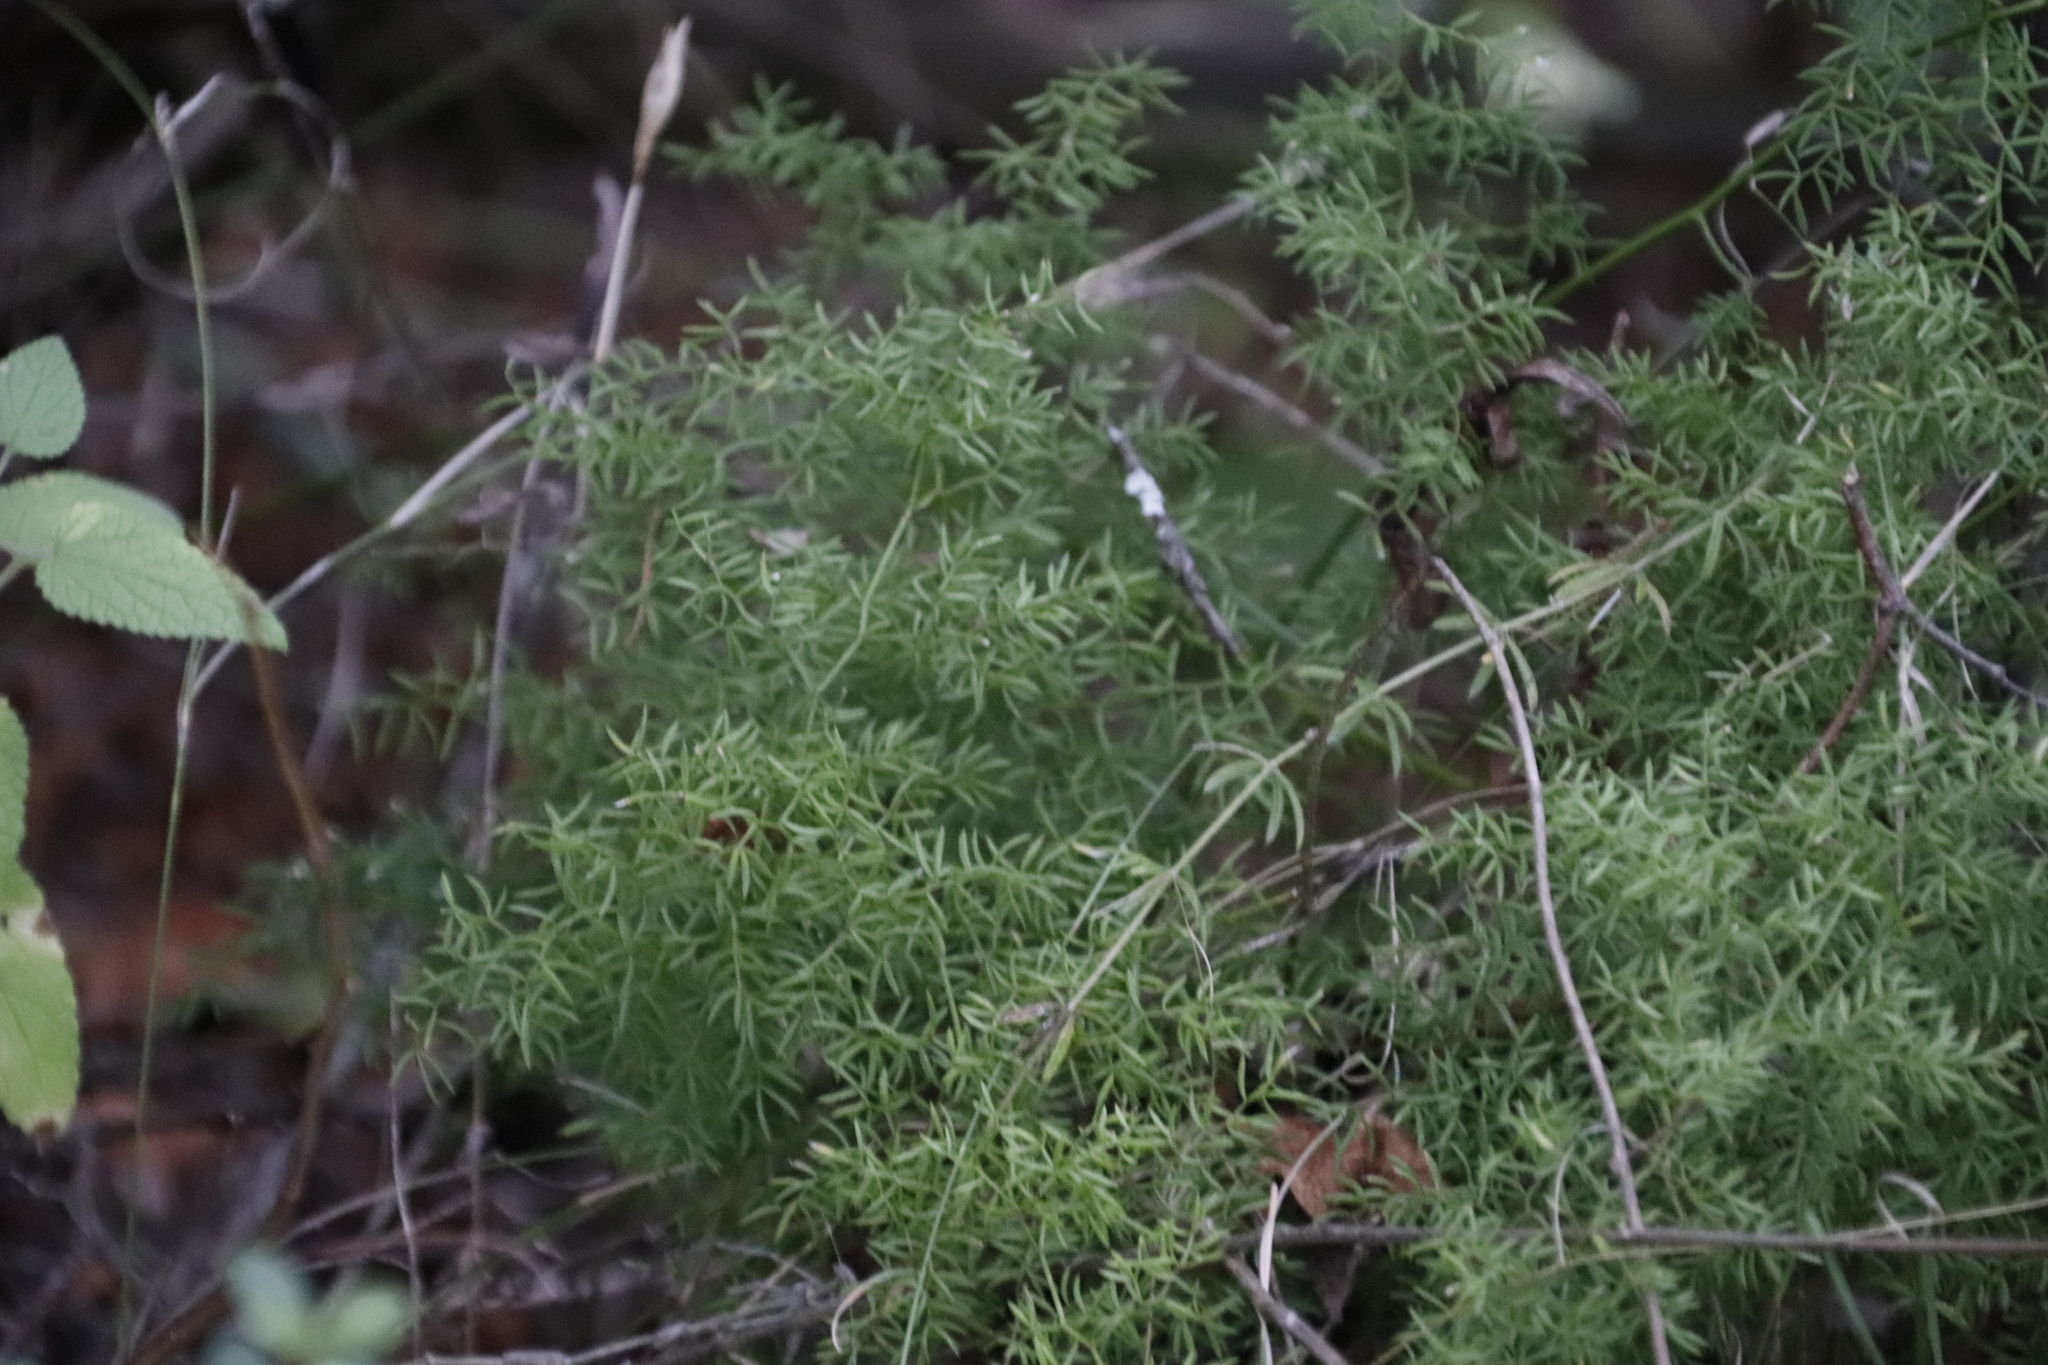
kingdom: Plantae
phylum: Tracheophyta
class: Liliopsida
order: Asparagales
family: Asparagaceae
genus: Asparagus
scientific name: Asparagus ramosissimus
